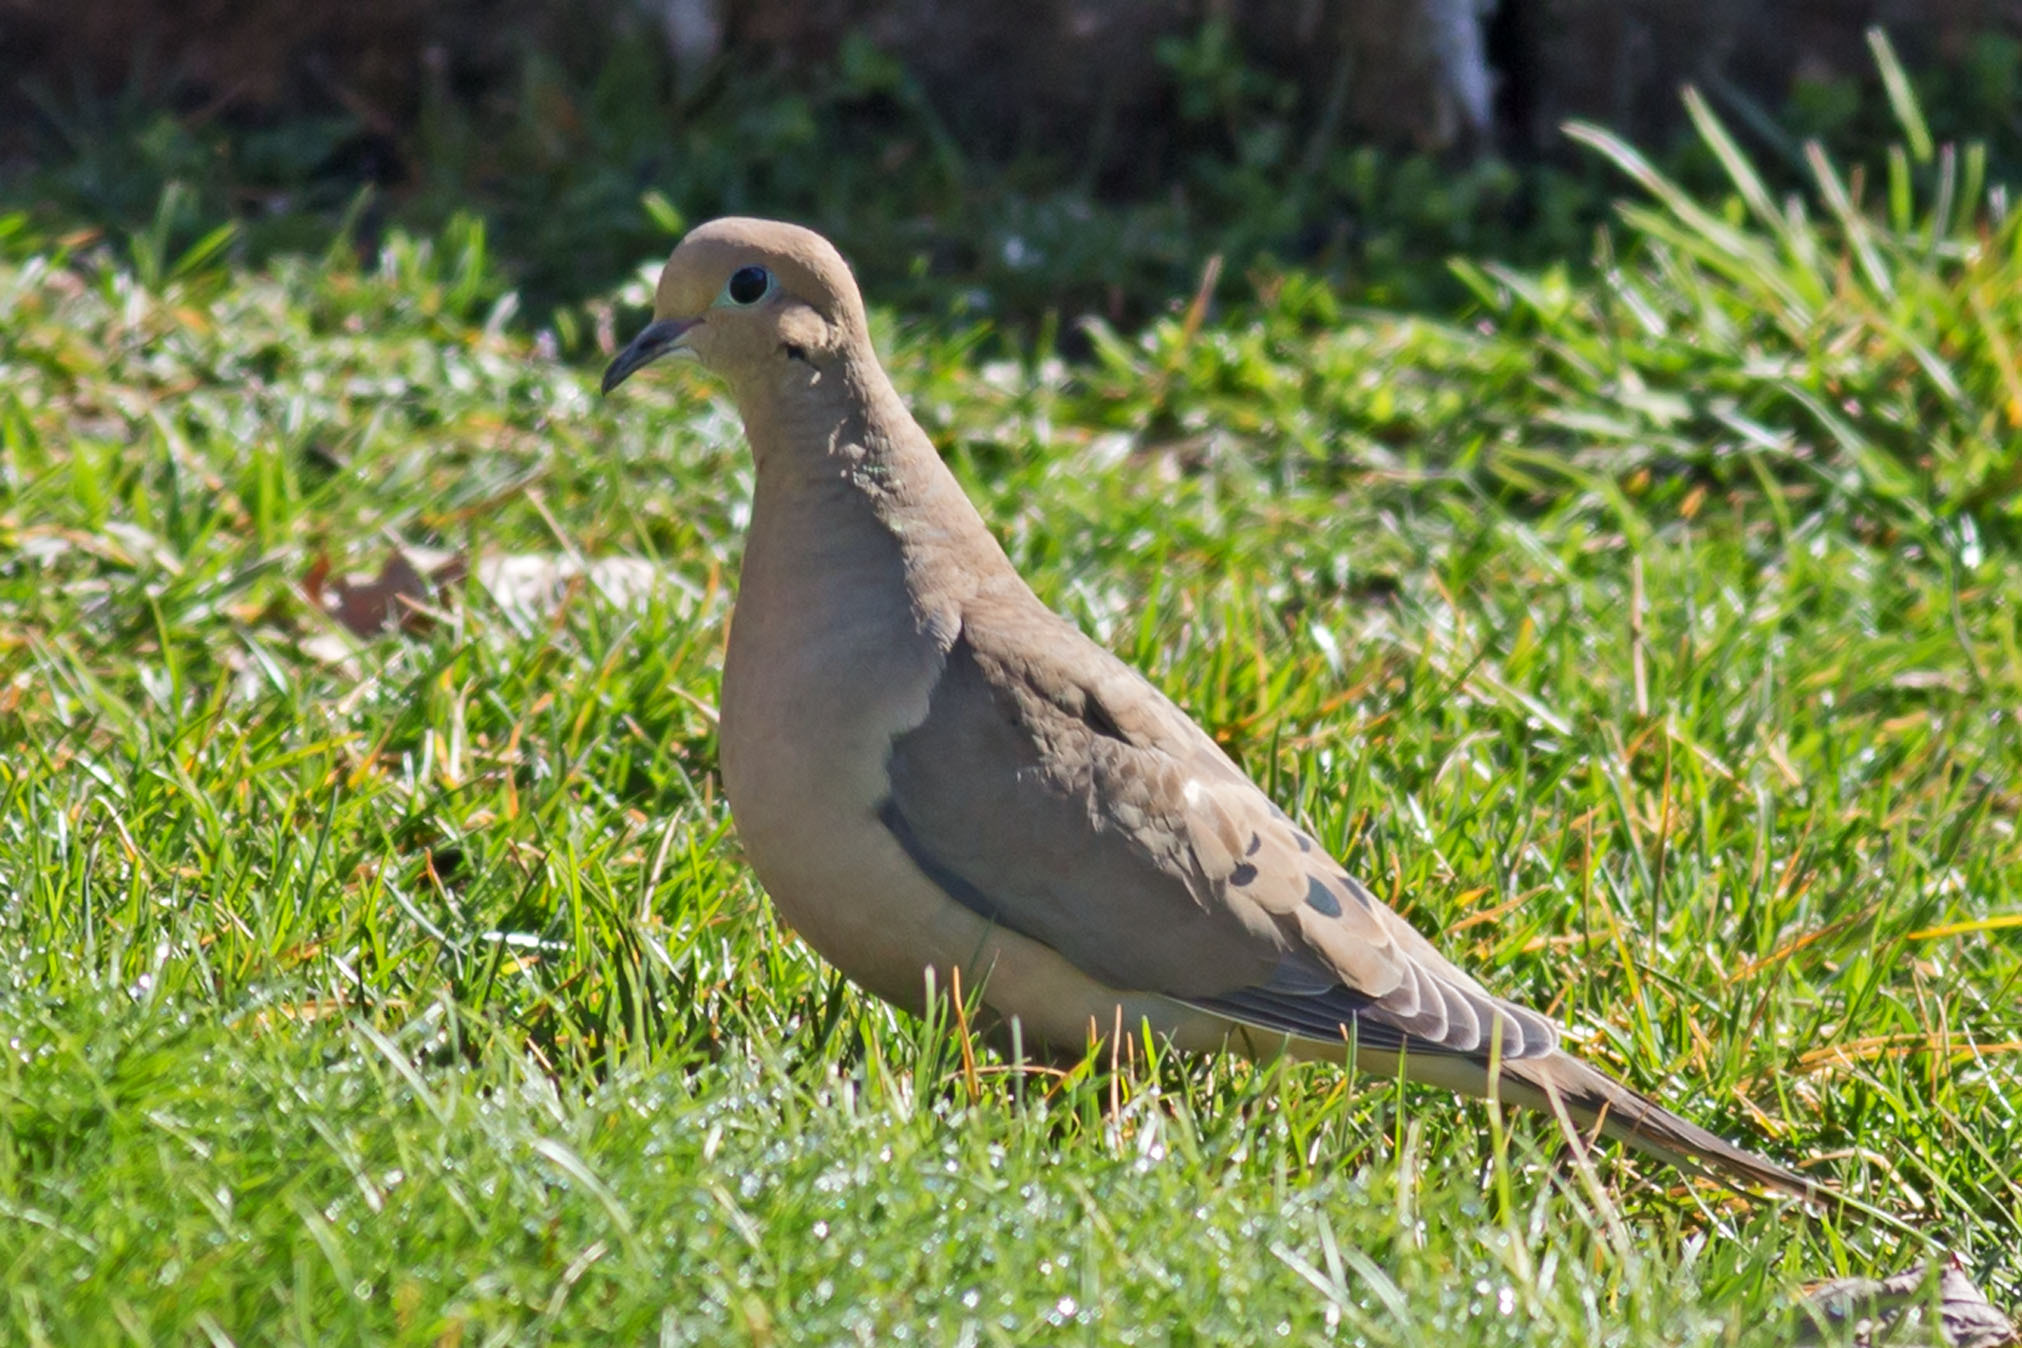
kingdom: Animalia
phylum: Chordata
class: Aves
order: Columbiformes
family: Columbidae
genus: Zenaida
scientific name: Zenaida macroura
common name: Mourning dove
